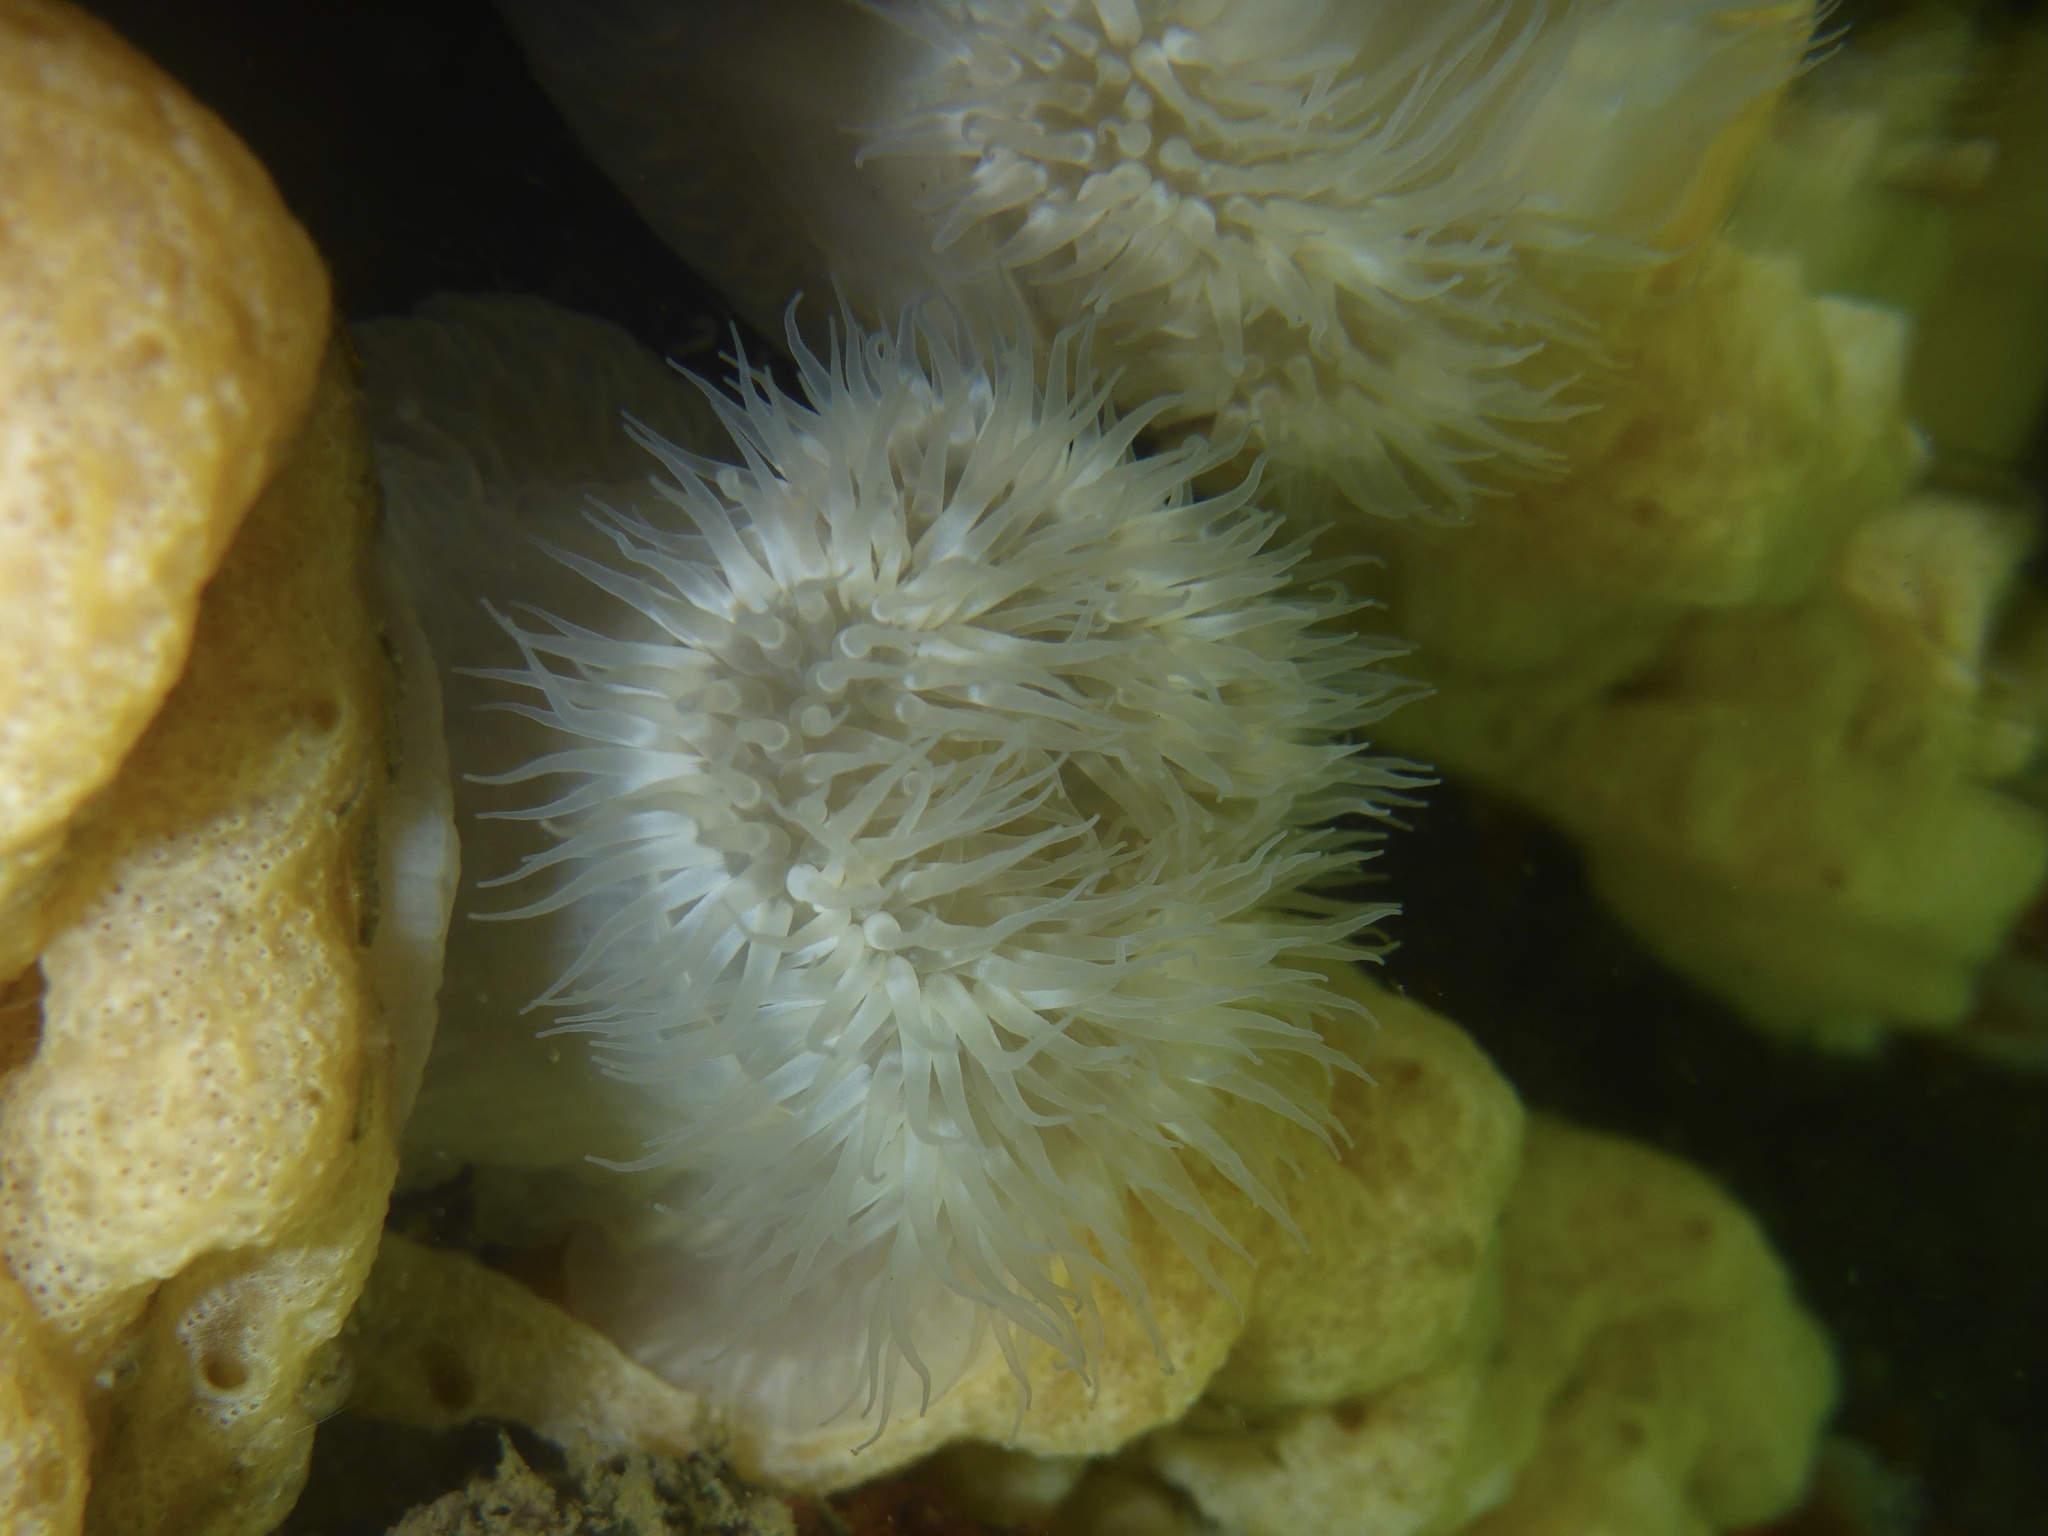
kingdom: Animalia
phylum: Cnidaria
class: Anthozoa
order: Actiniaria
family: Metridiidae
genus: Metridium
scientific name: Metridium senile
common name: Clonal plumose anemone
